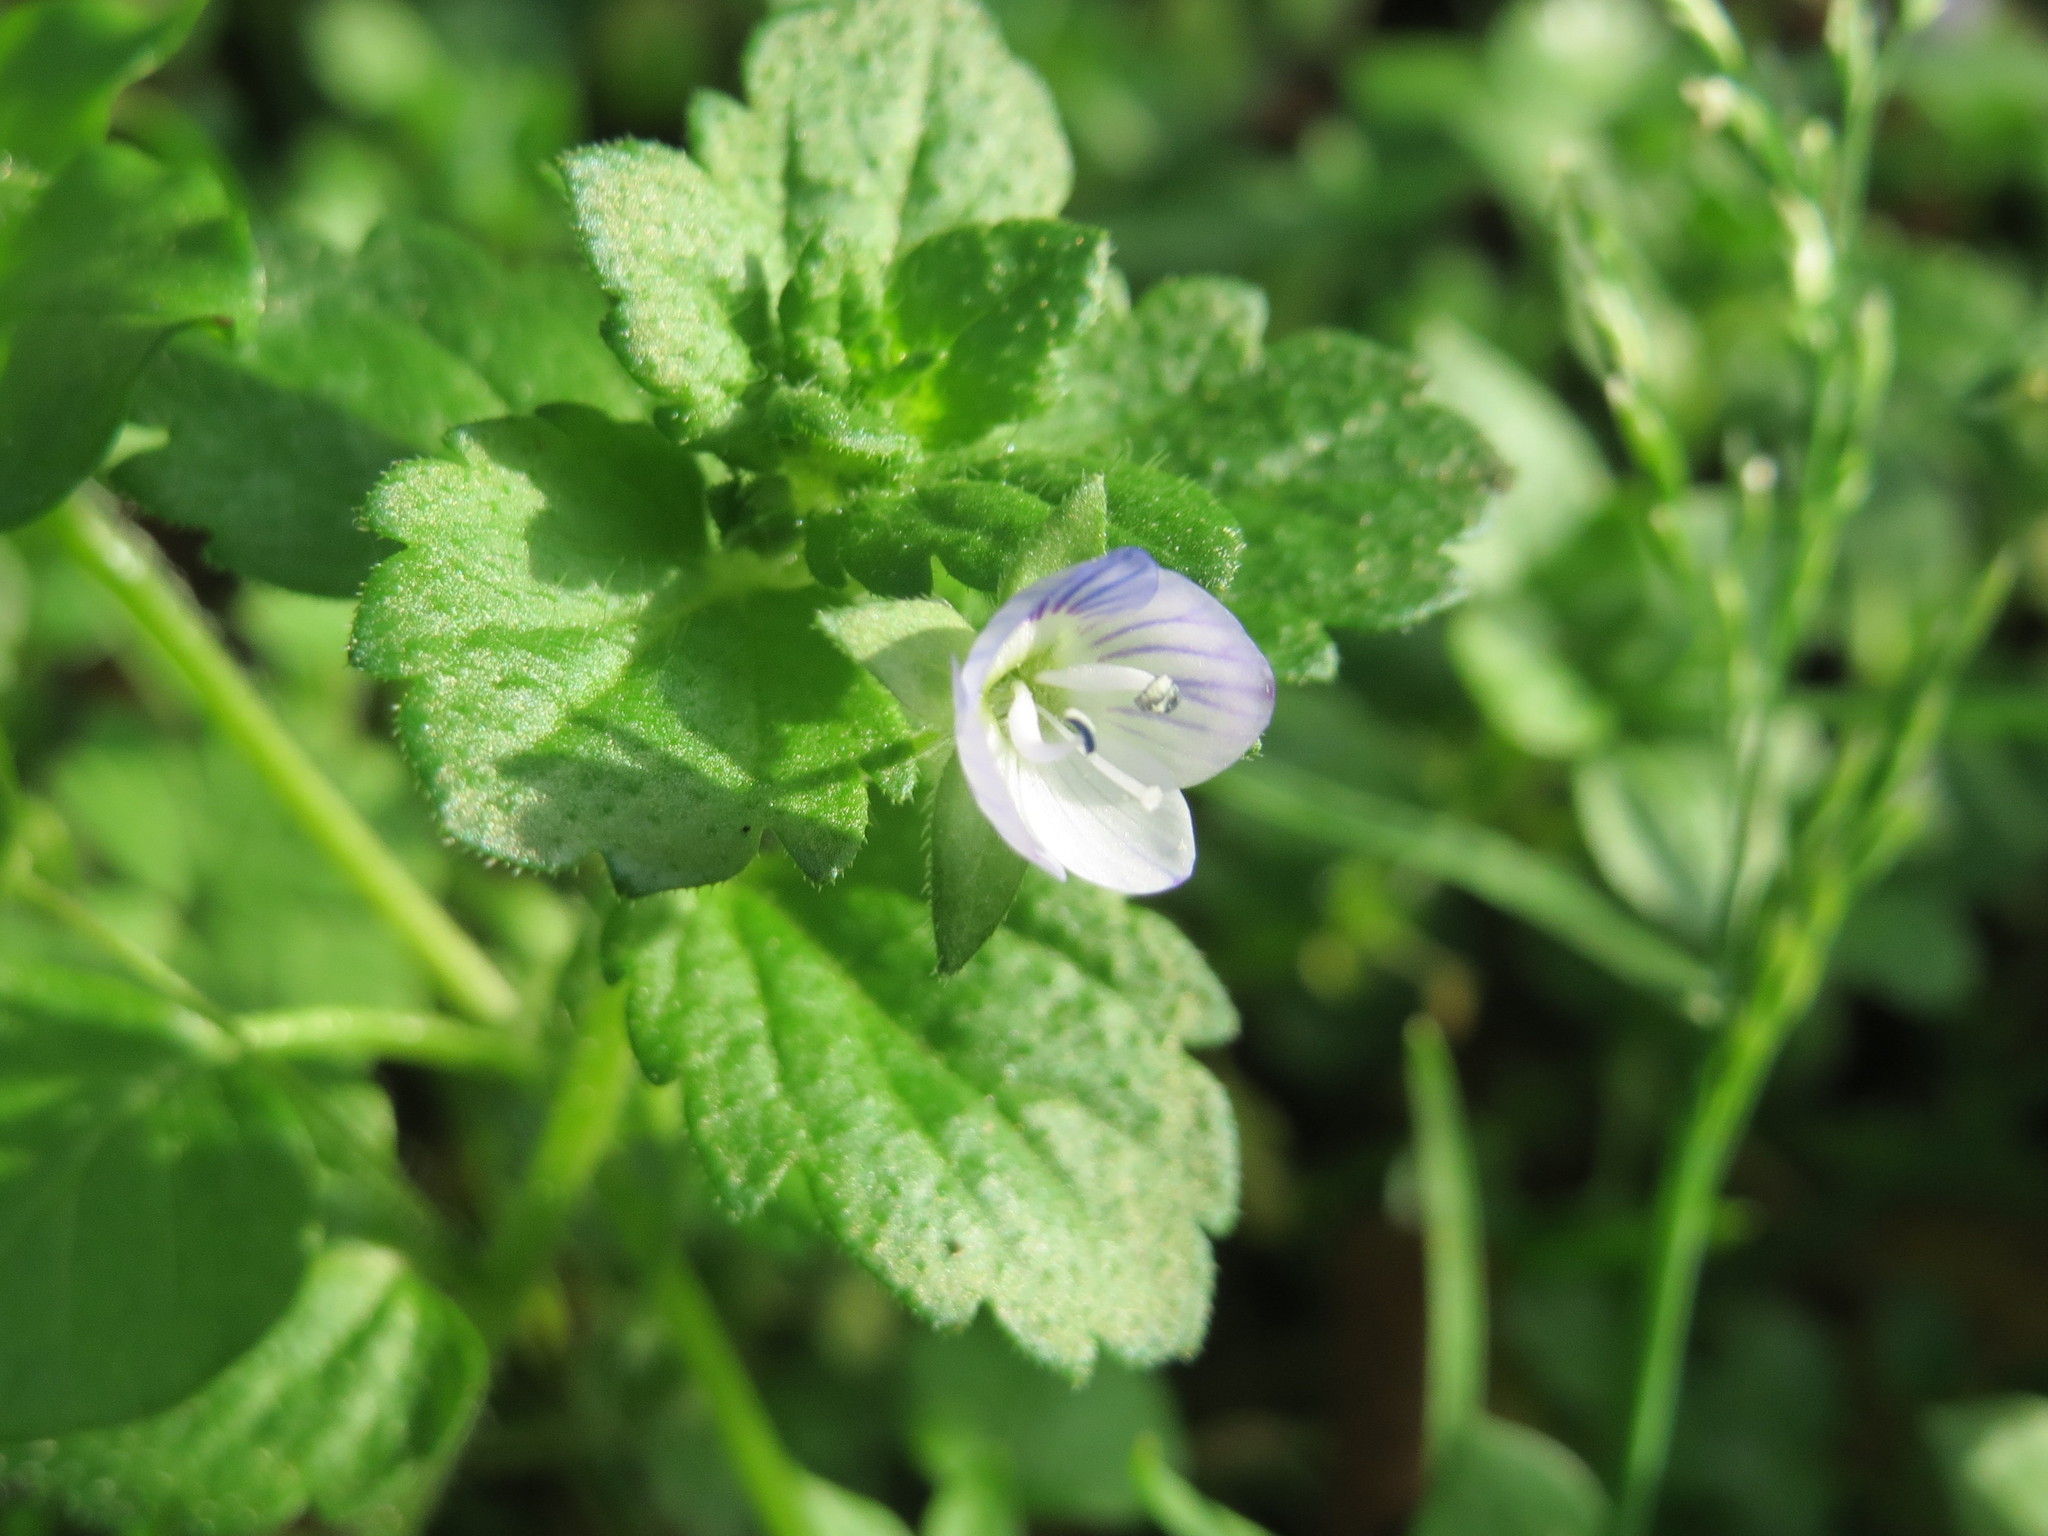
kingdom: Plantae
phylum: Tracheophyta
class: Magnoliopsida
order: Lamiales
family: Plantaginaceae
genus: Veronica
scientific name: Veronica persica
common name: Common field-speedwell
